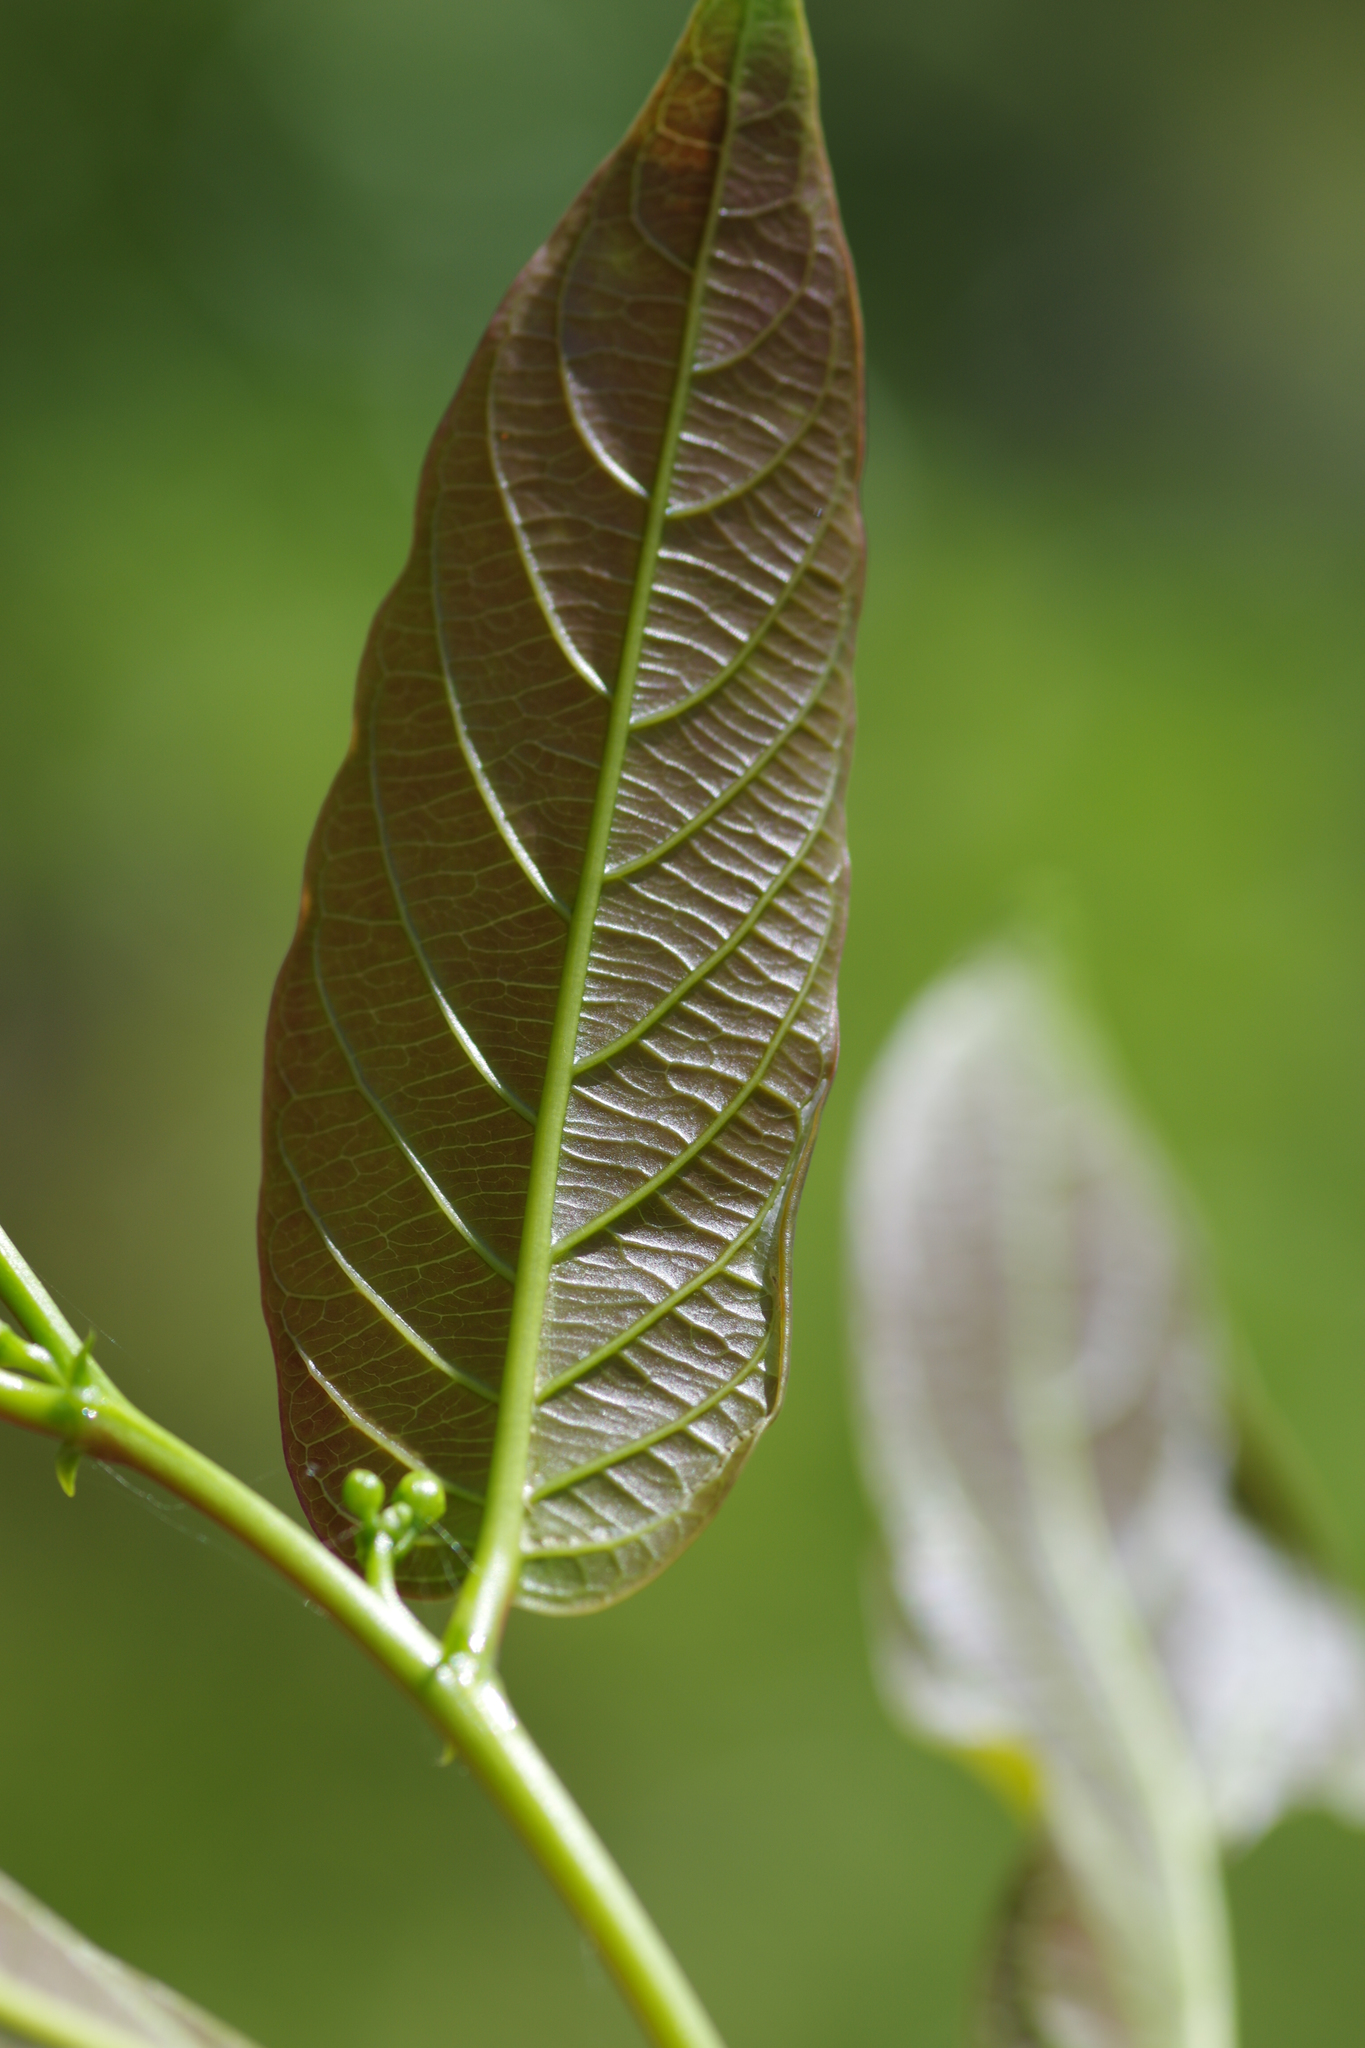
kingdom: Animalia
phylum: Arthropoda
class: Insecta
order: Lepidoptera
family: Gracillariidae
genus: Caloptilia
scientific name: Caloptilia ryukyuensis
